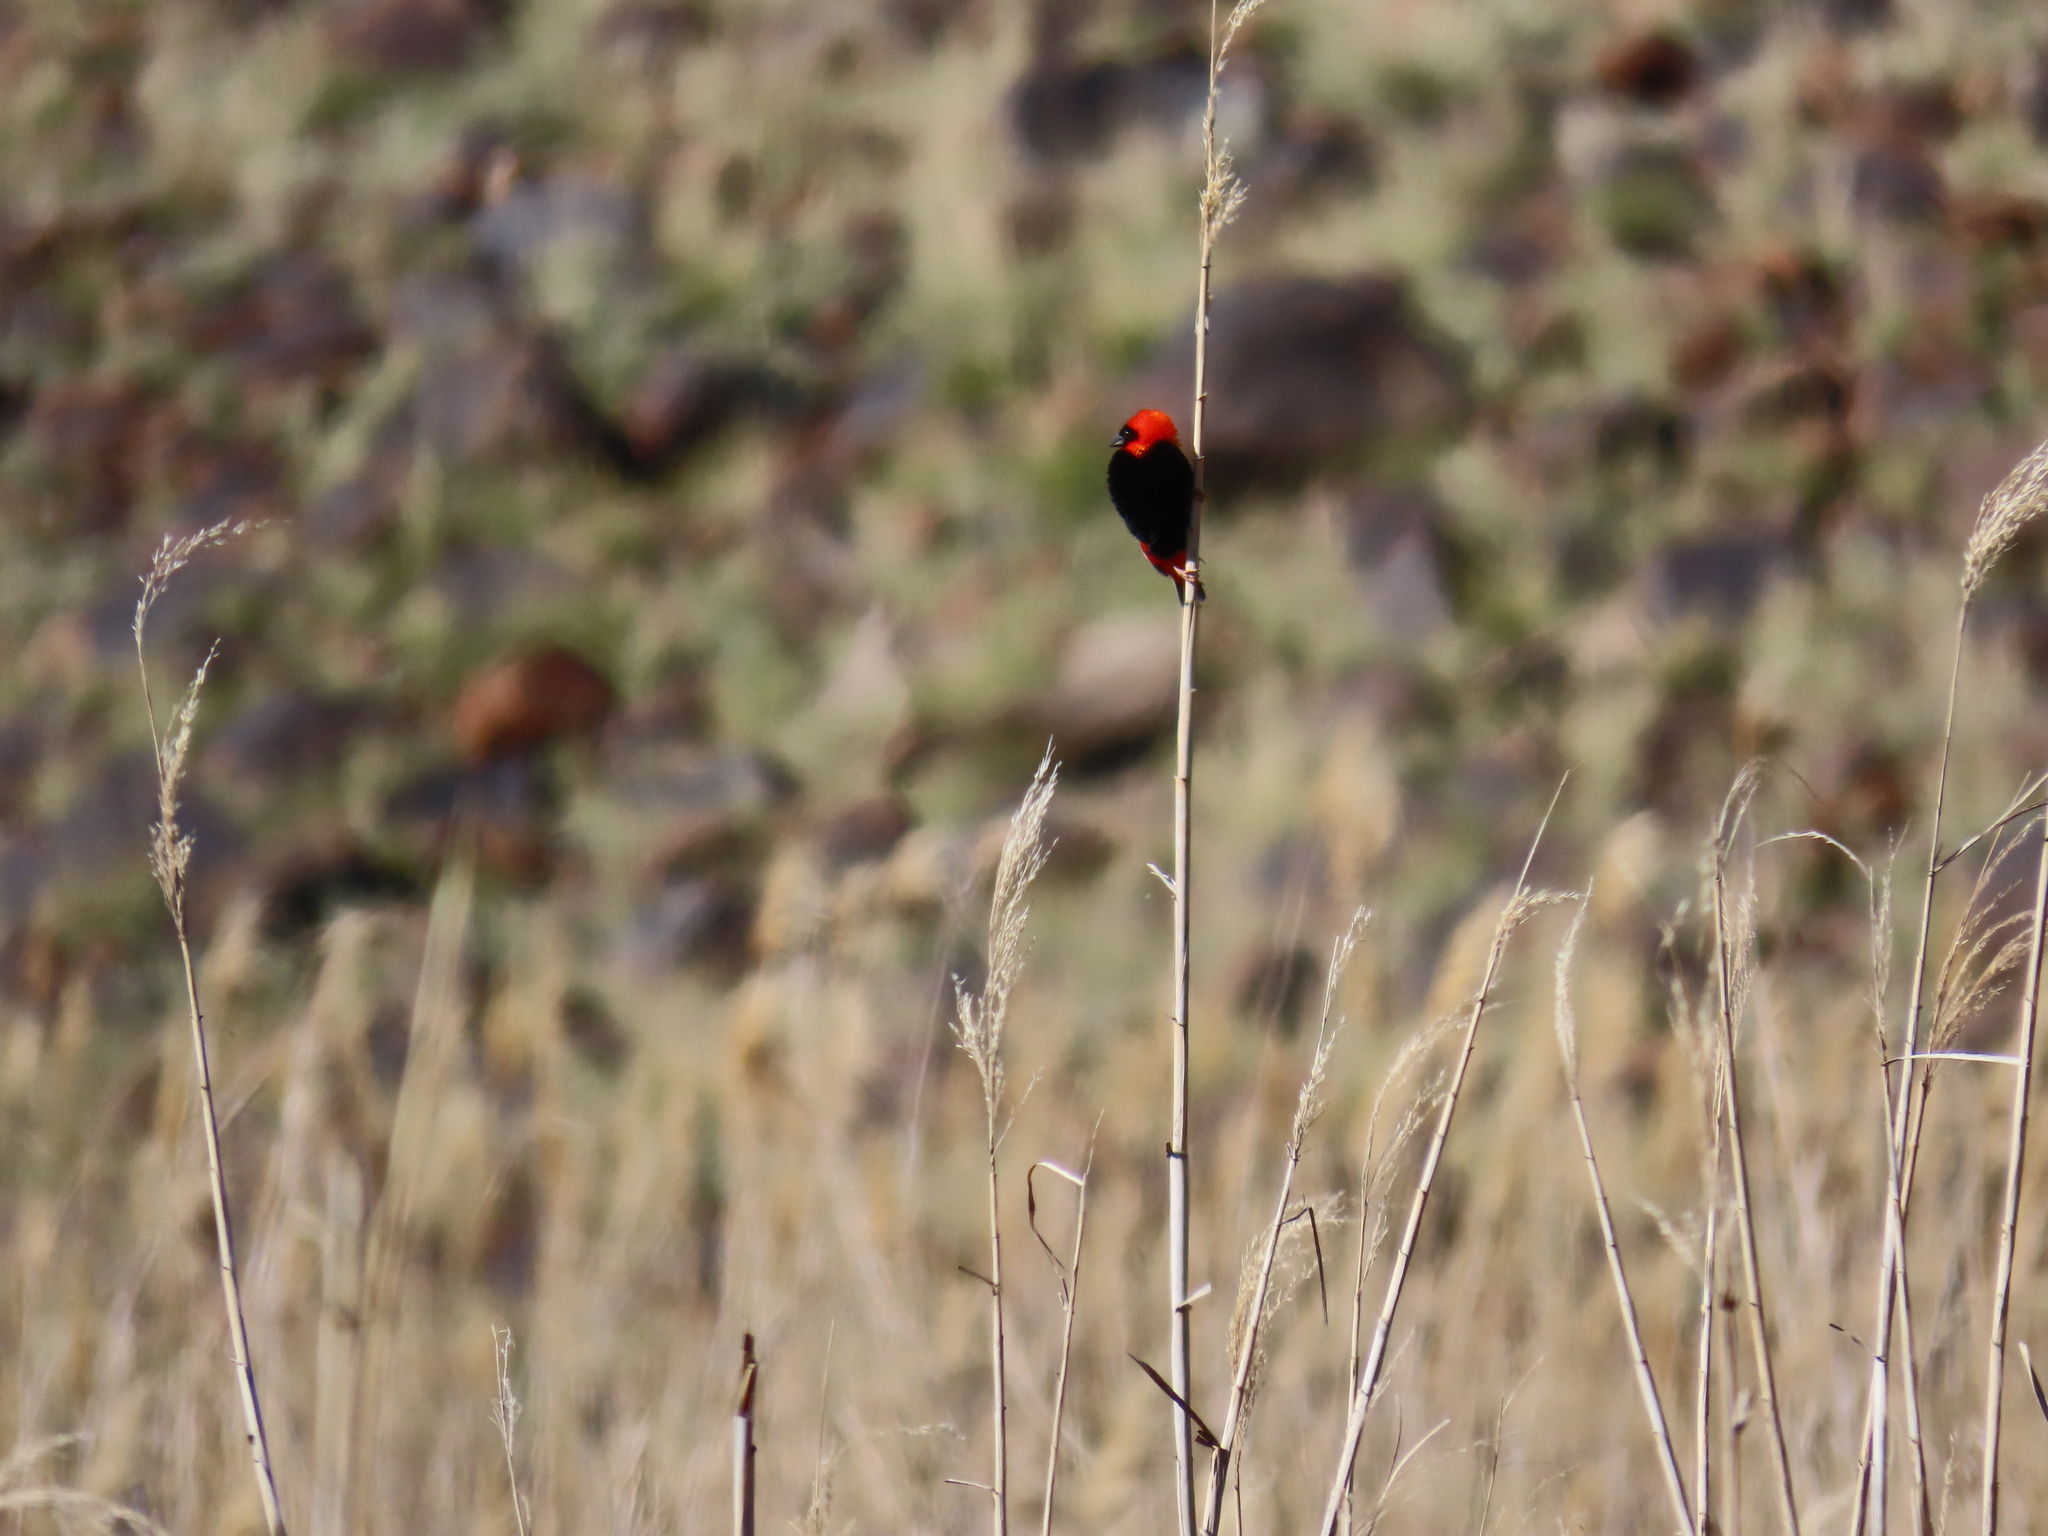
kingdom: Animalia
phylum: Chordata
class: Aves
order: Passeriformes
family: Ploceidae
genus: Euplectes
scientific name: Euplectes orix
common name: Southern red bishop
